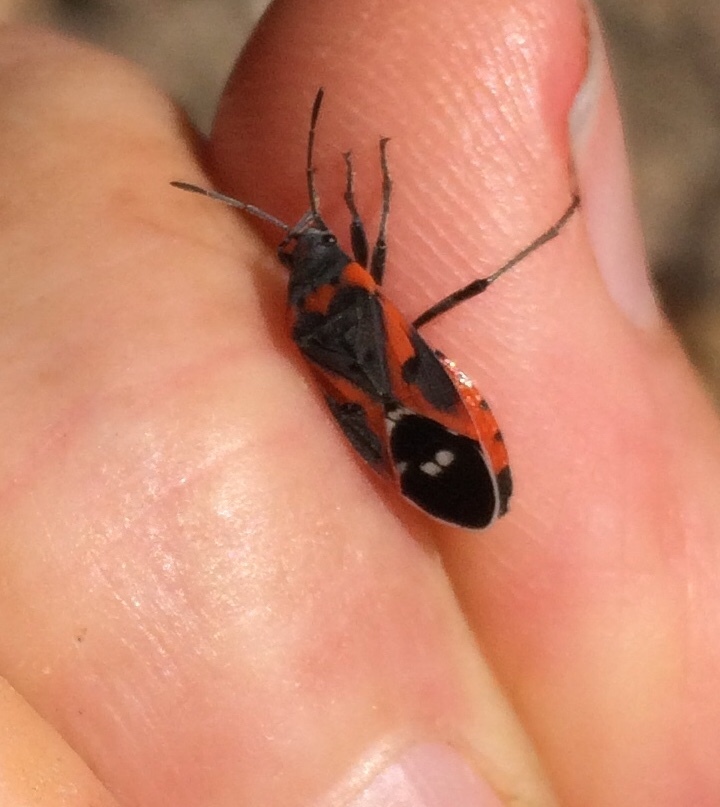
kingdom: Animalia
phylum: Arthropoda
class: Insecta
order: Hemiptera
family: Lygaeidae
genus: Lygaeus
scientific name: Lygaeus kalmii
